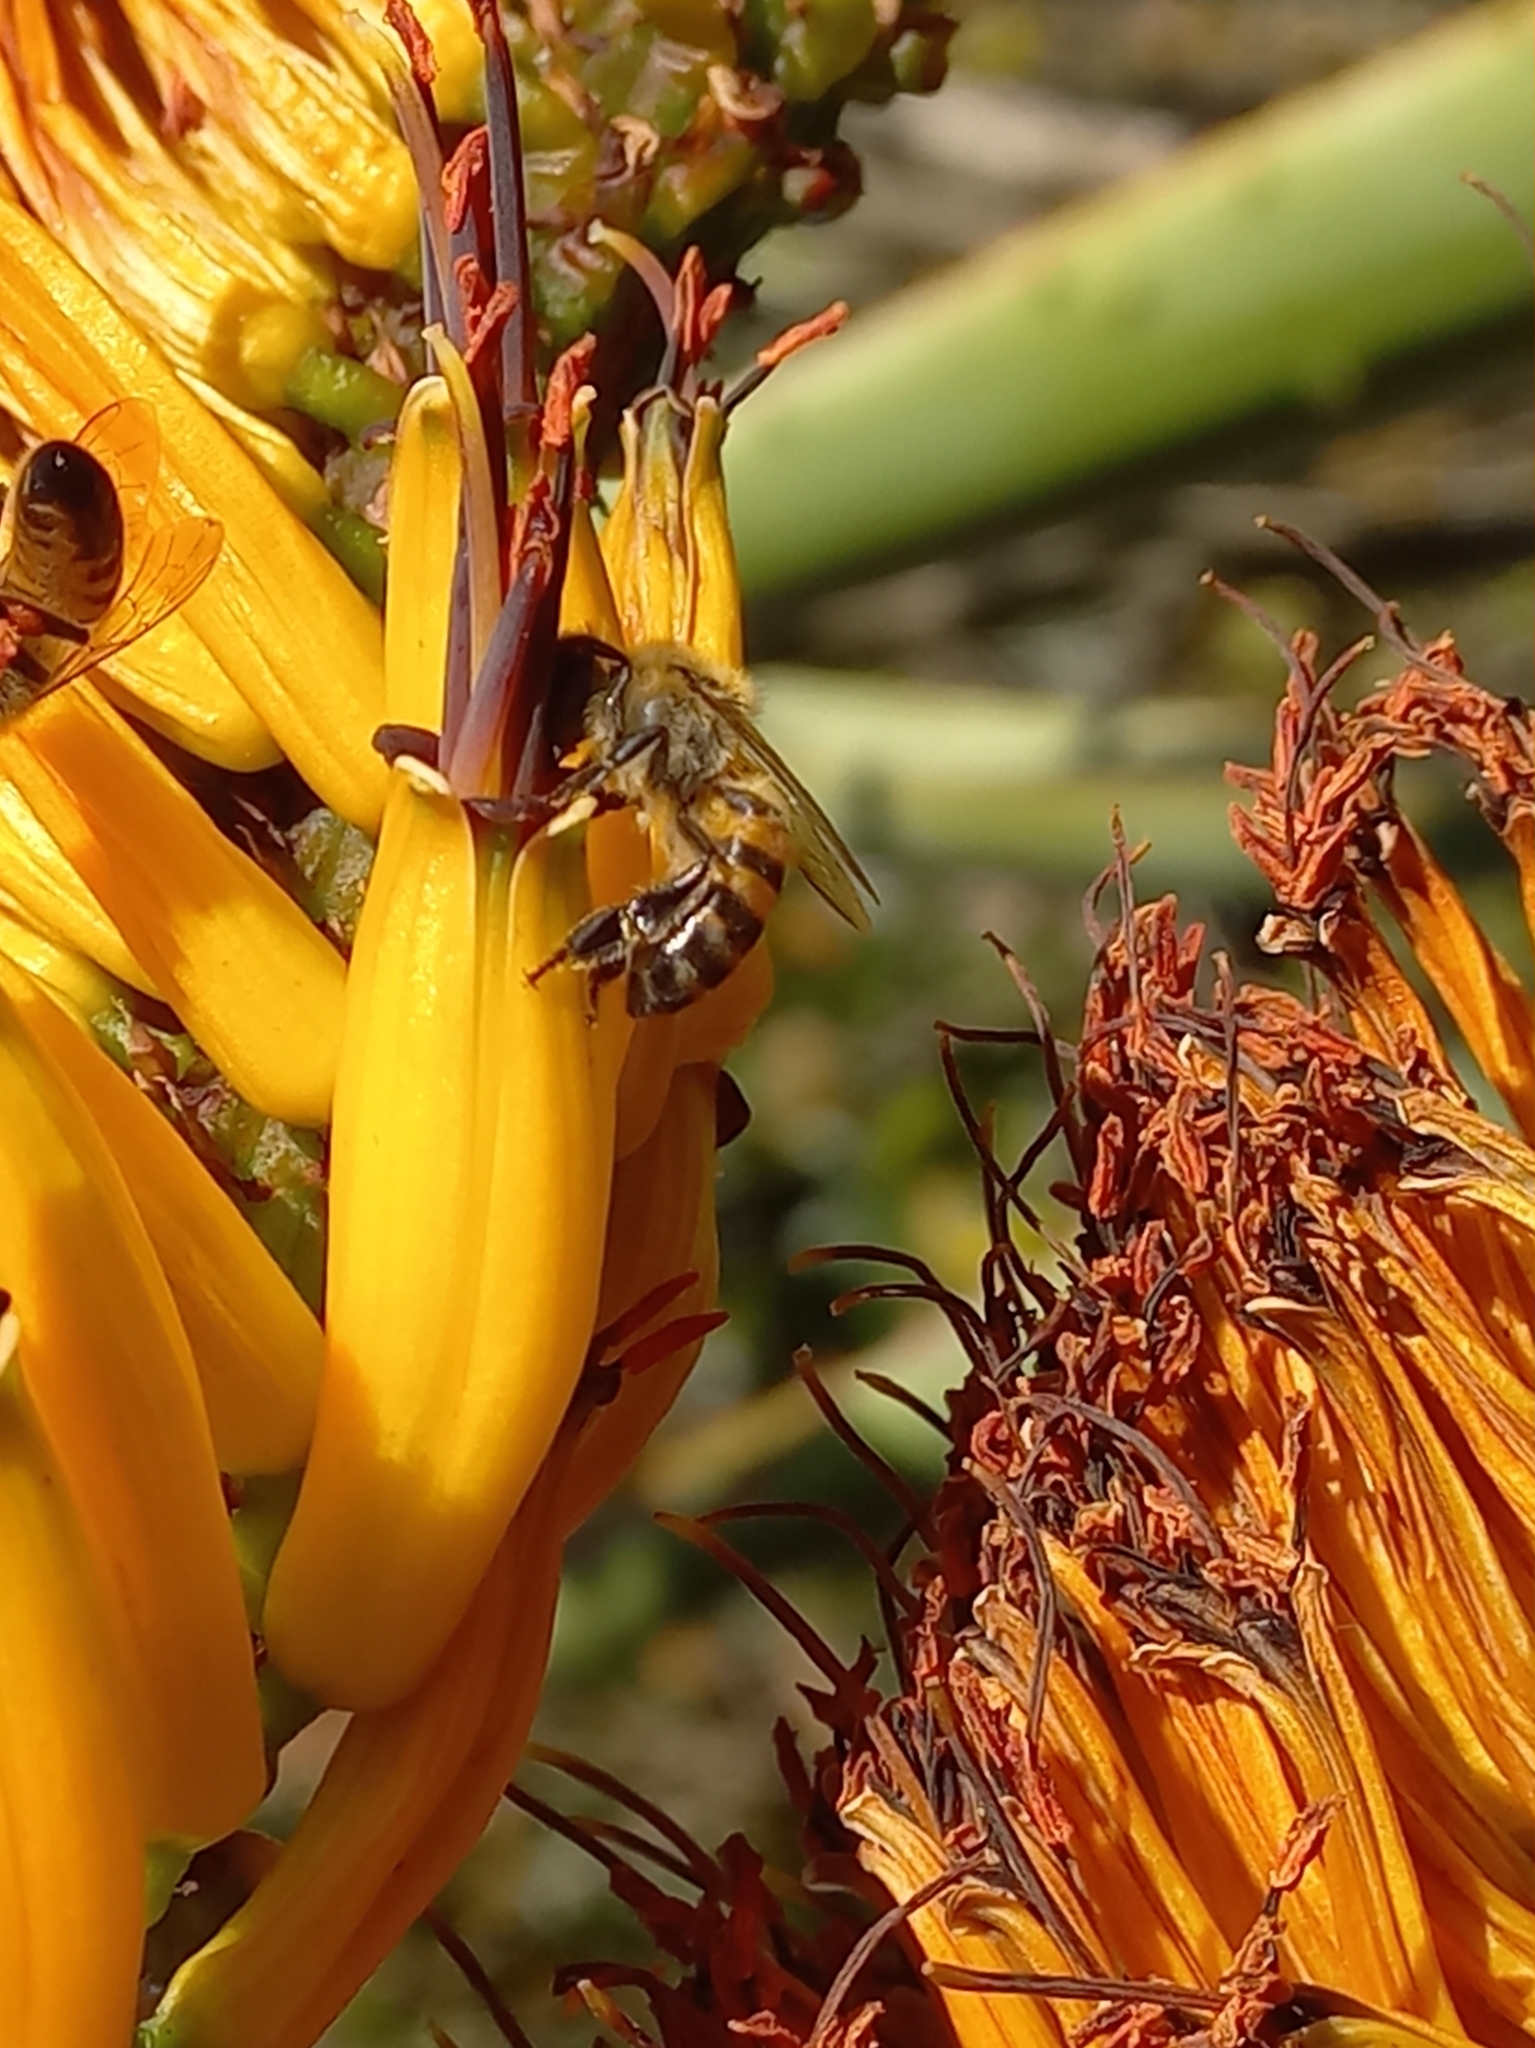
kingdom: Animalia
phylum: Arthropoda
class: Insecta
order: Hymenoptera
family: Apidae
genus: Apis
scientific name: Apis mellifera
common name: Honey bee
